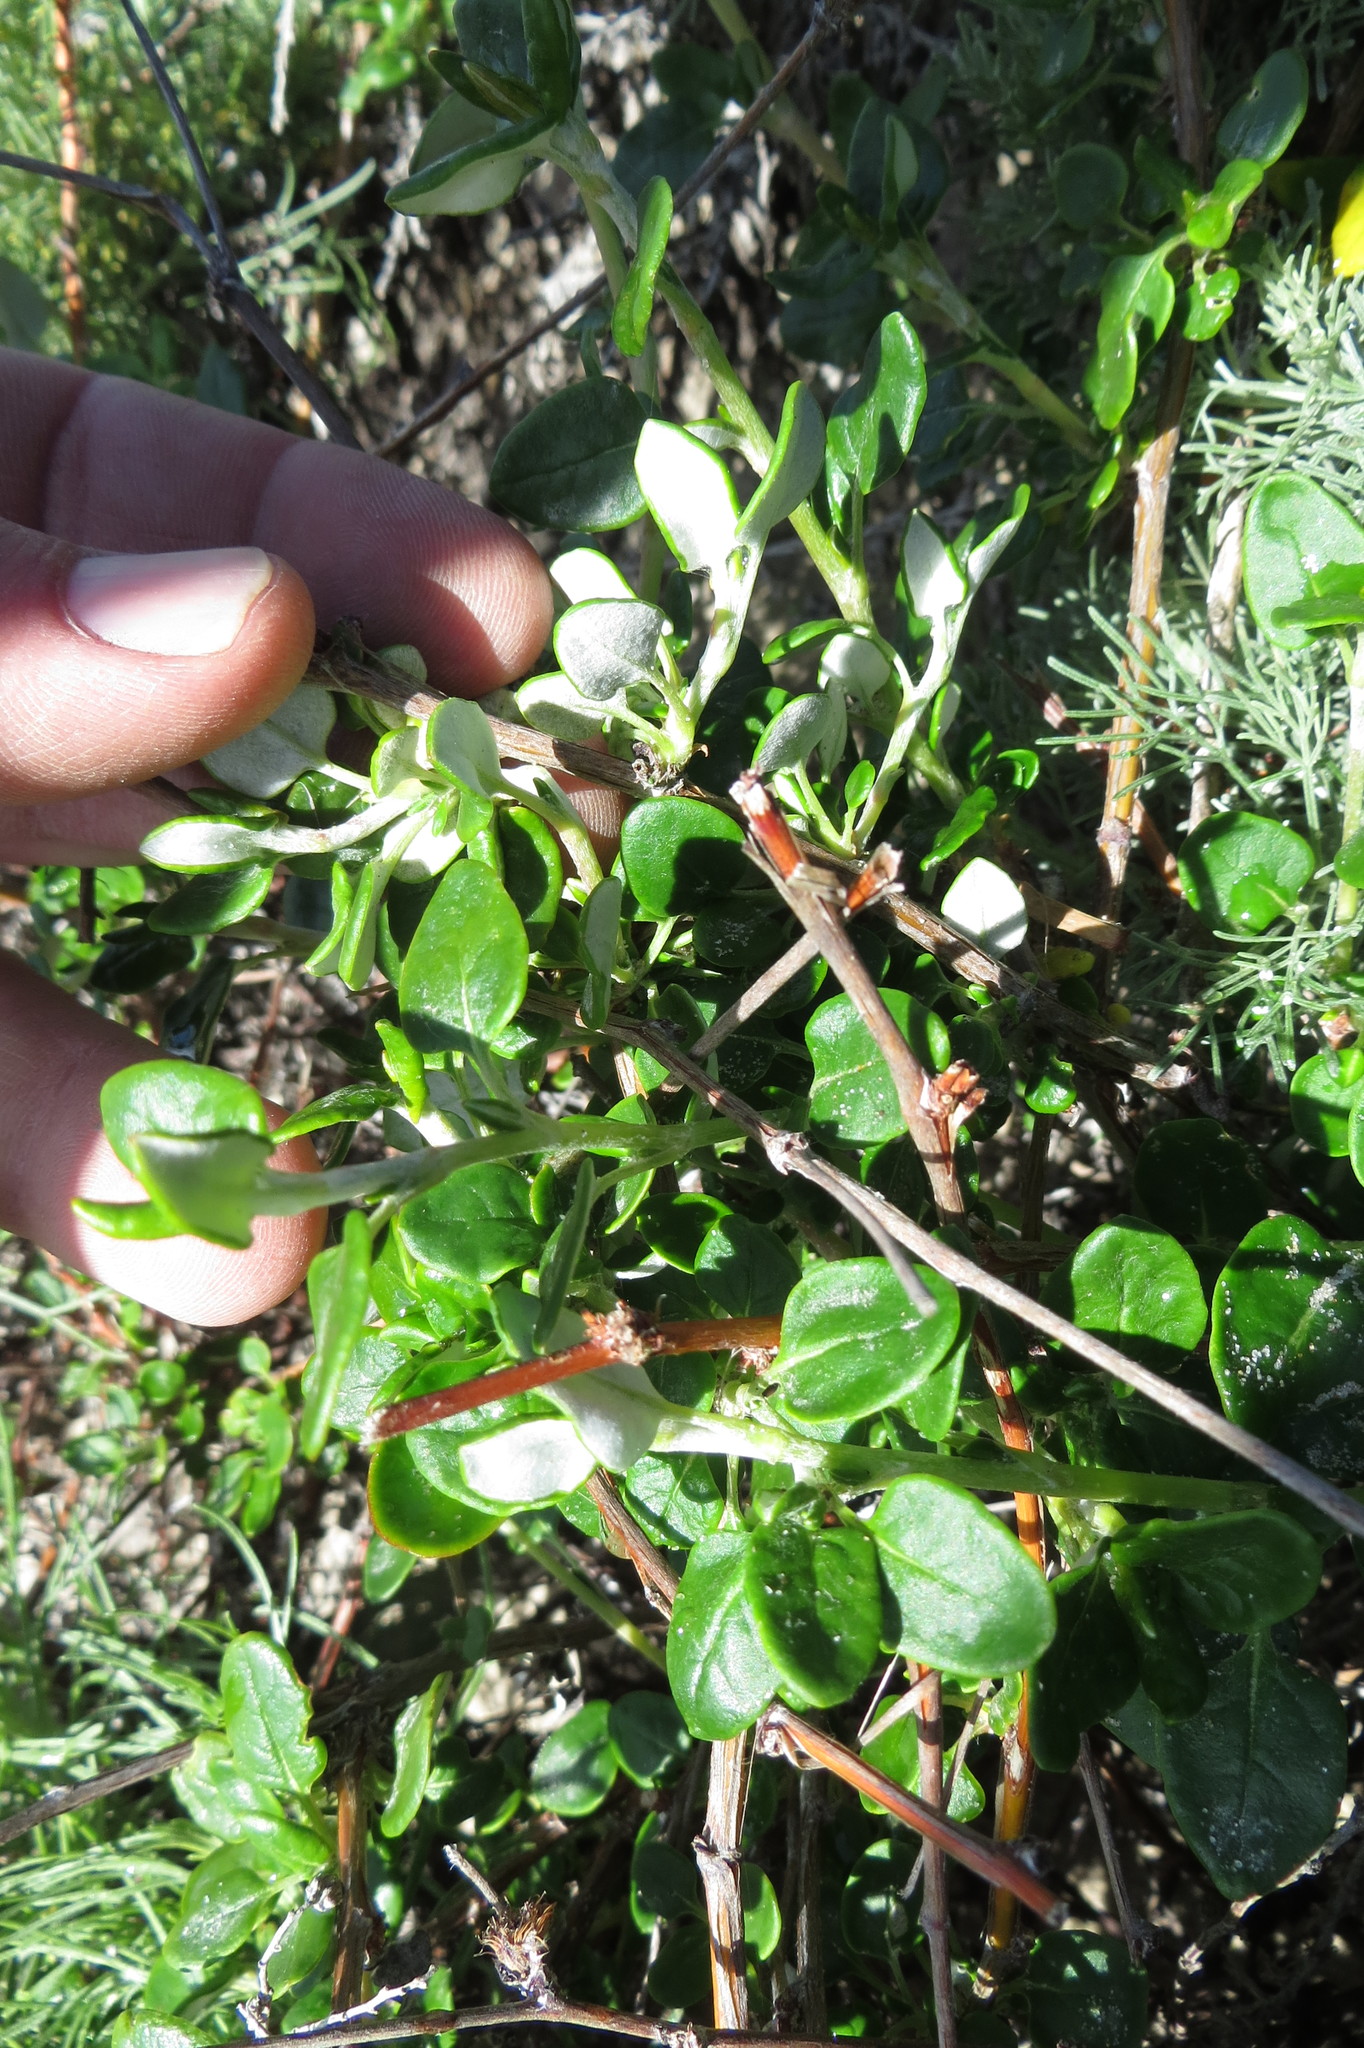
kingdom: Plantae
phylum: Tracheophyta
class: Magnoliopsida
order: Caryophyllales
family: Polygonaceae
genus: Eriogonum
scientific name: Eriogonum parvifolium
